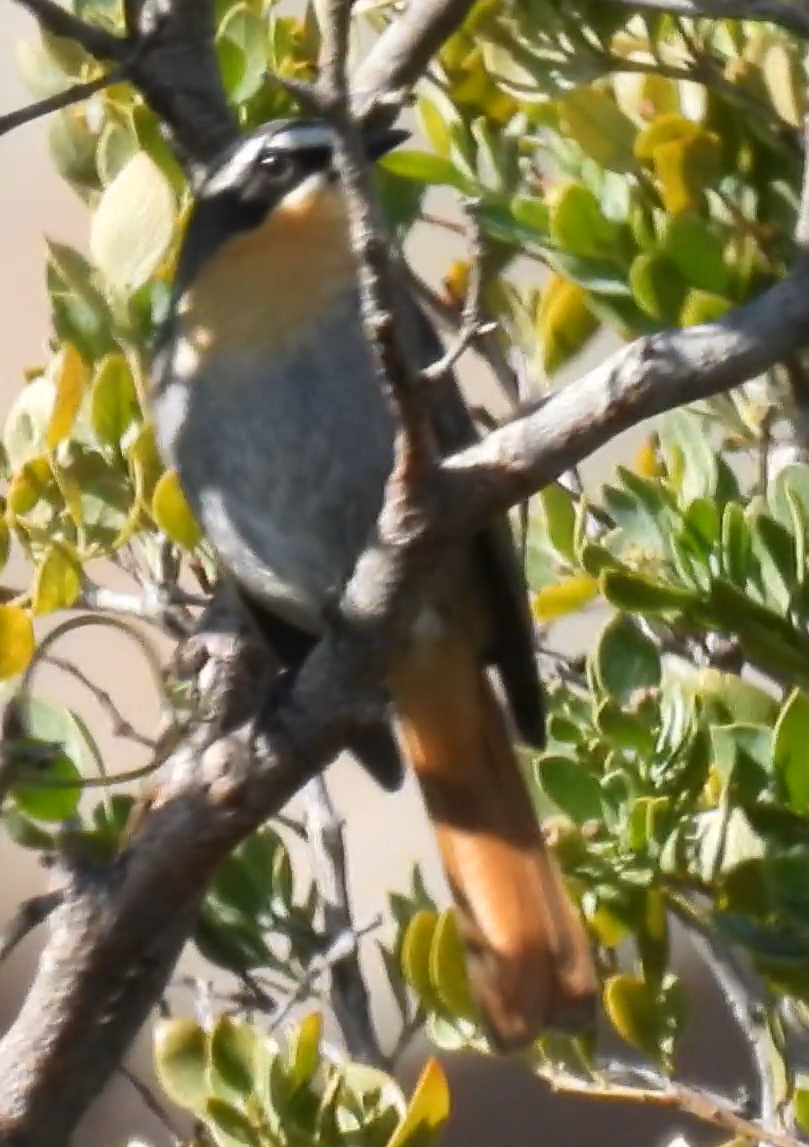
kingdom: Animalia
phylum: Chordata
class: Aves
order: Passeriformes
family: Muscicapidae
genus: Cossypha
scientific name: Cossypha caffra
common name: Cape robin-chat
